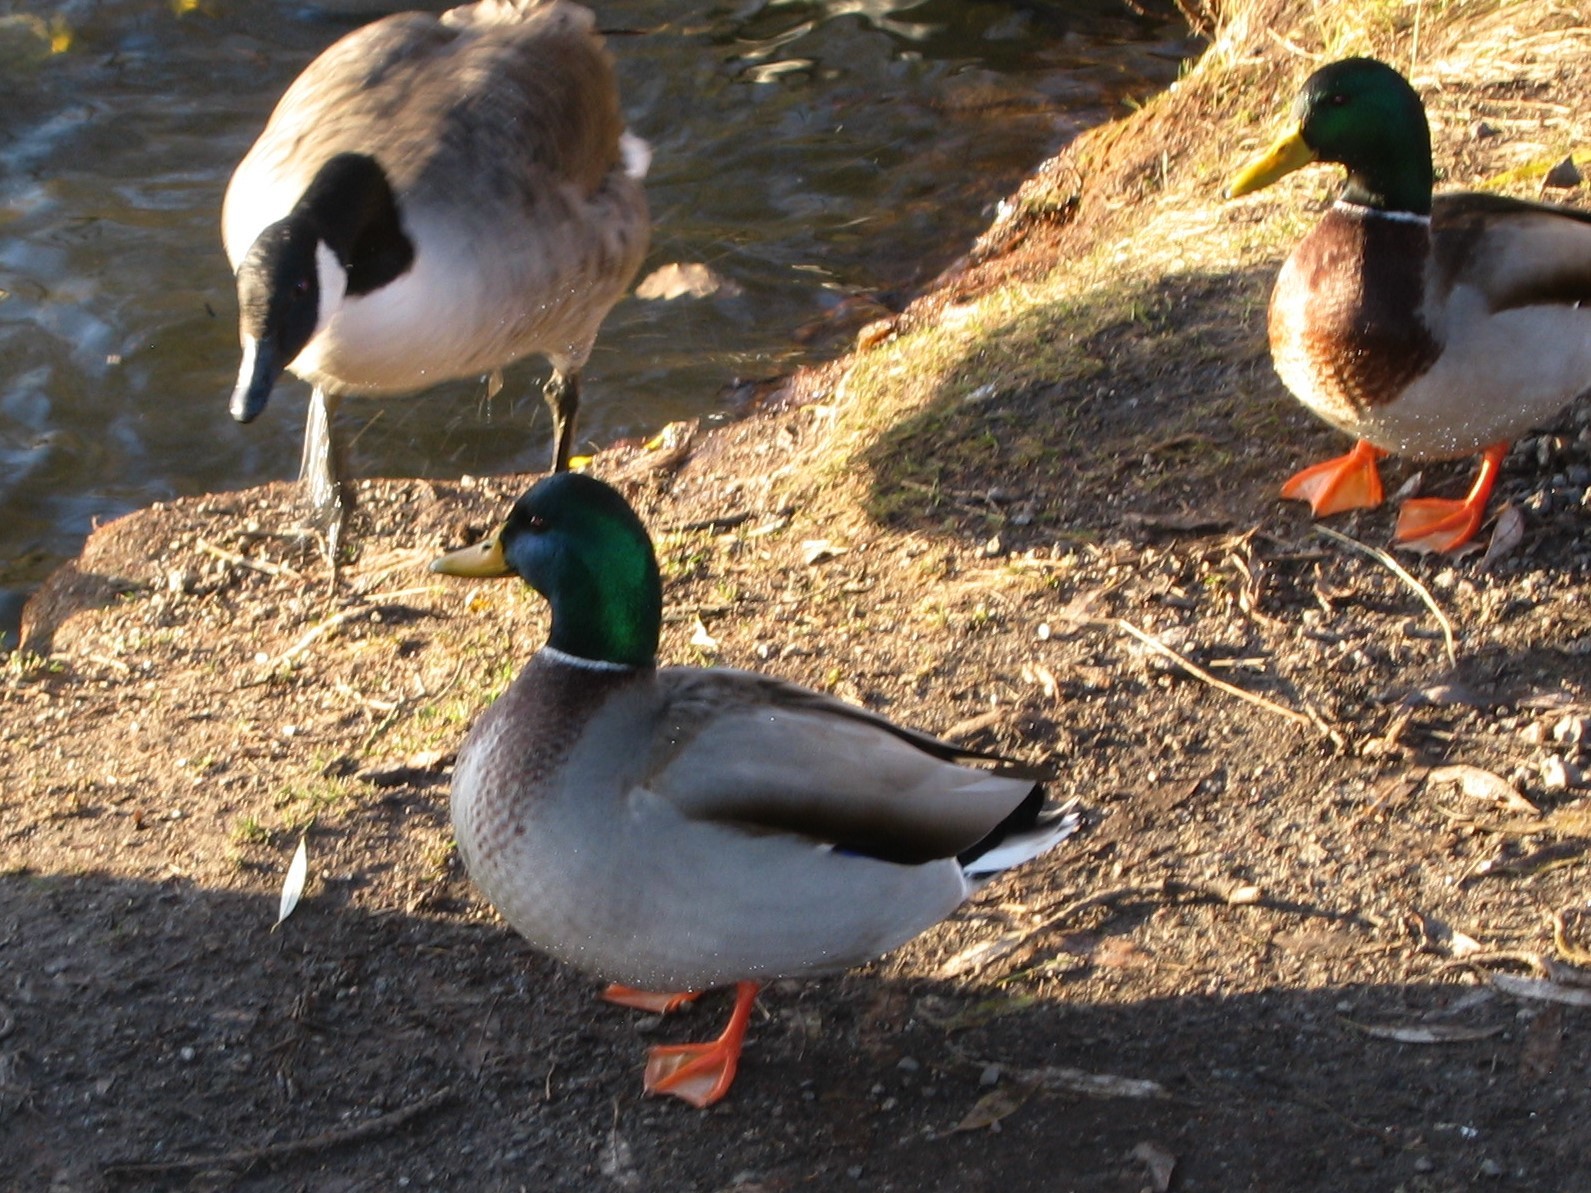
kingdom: Animalia
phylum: Chordata
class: Aves
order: Anseriformes
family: Anatidae
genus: Anas
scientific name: Anas platyrhynchos
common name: Mallard
